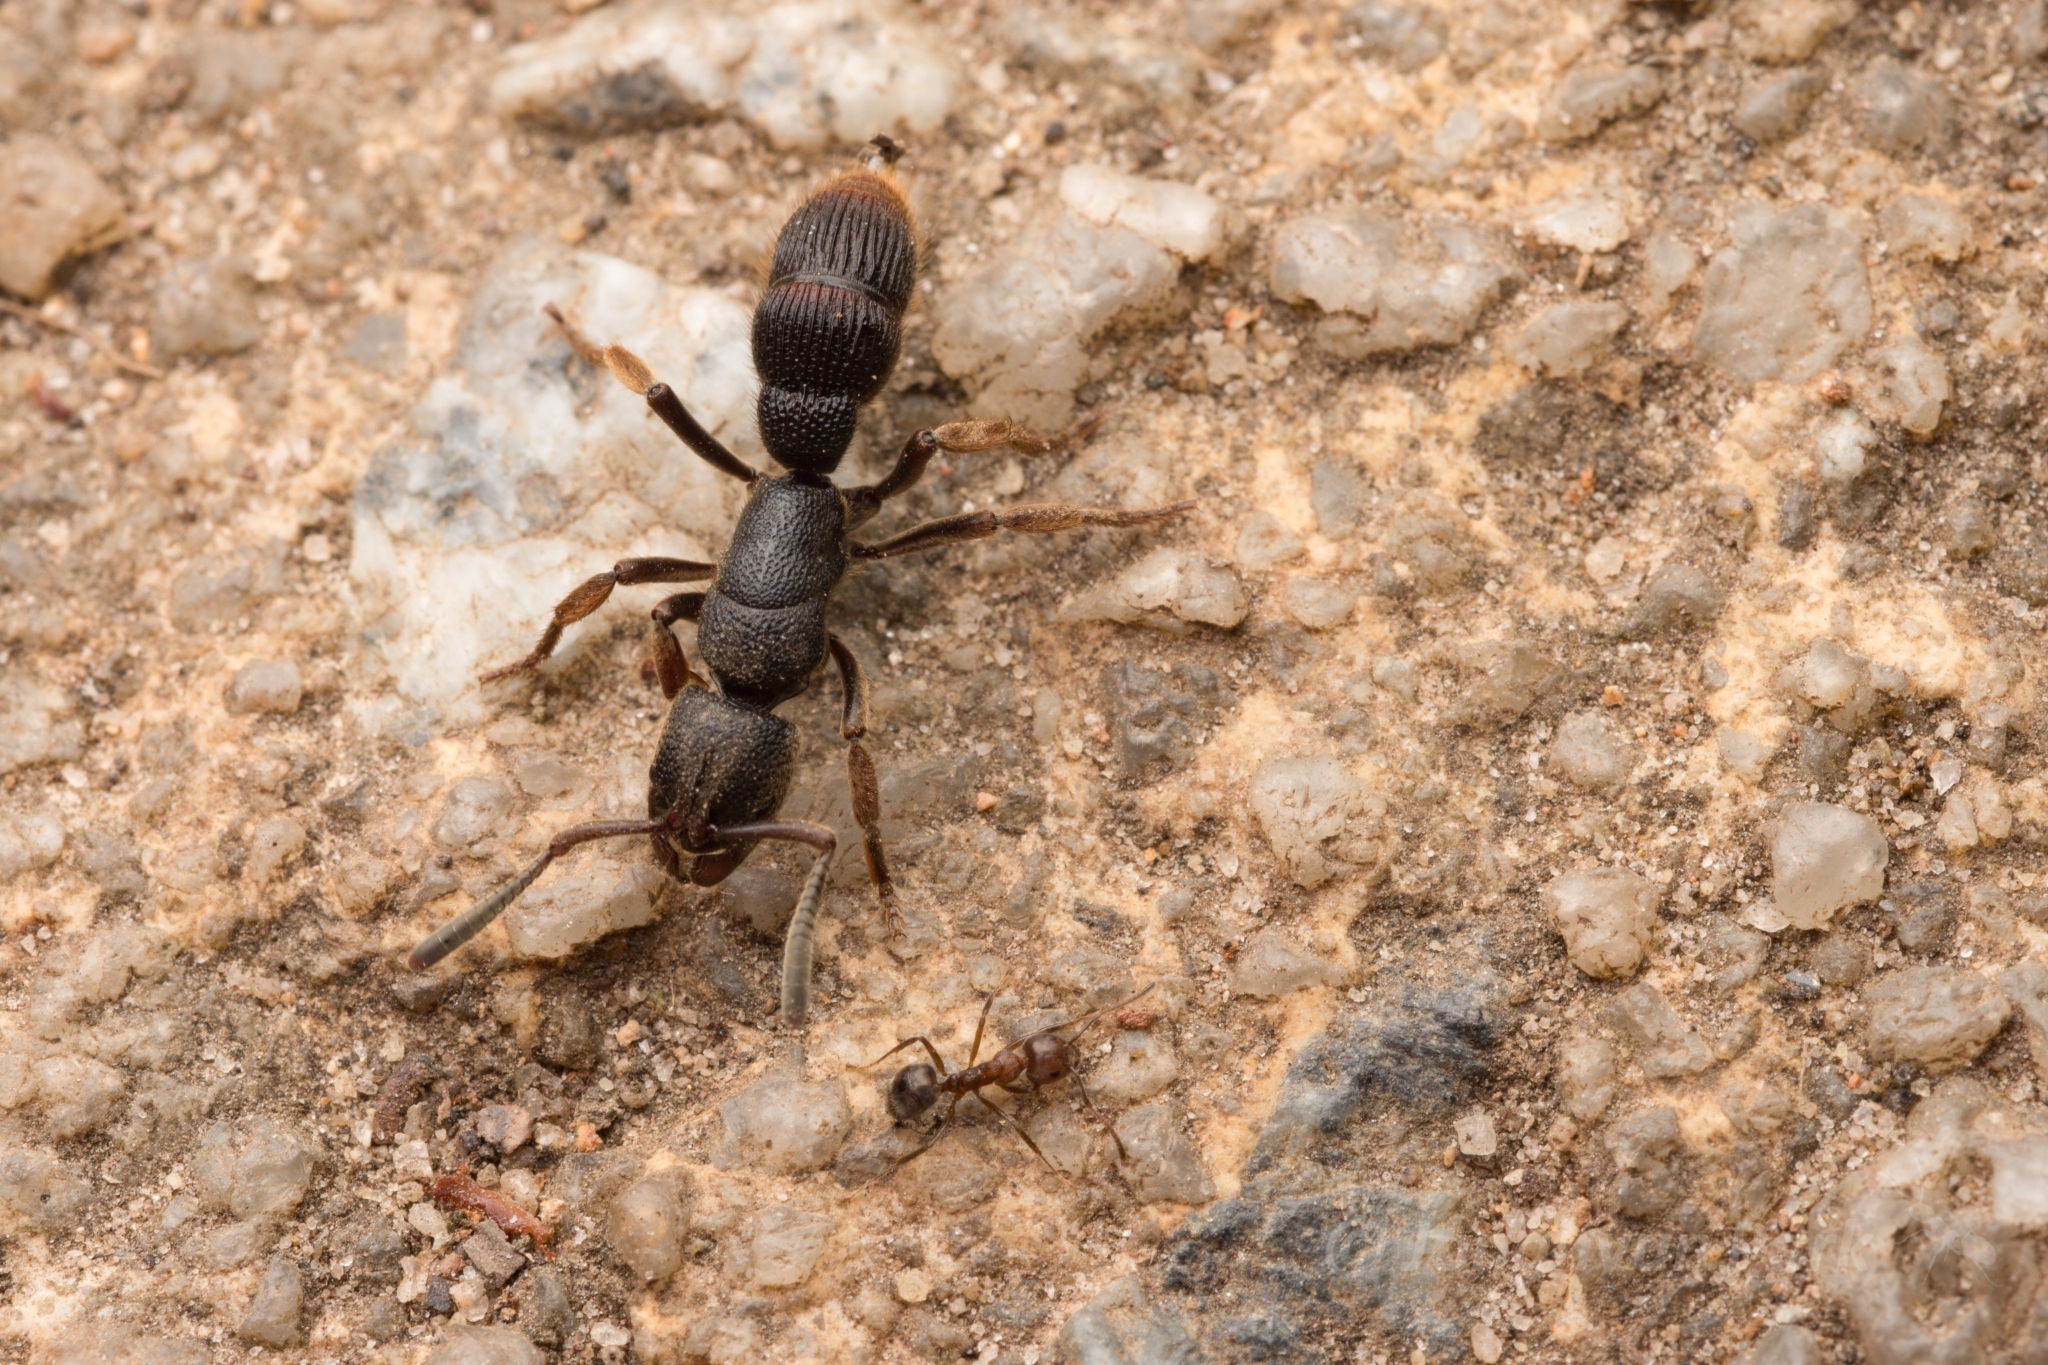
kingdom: Animalia
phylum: Arthropoda
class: Insecta
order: Hymenoptera
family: Formicidae
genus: Pseudoneoponera
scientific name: Pseudoneoponera
